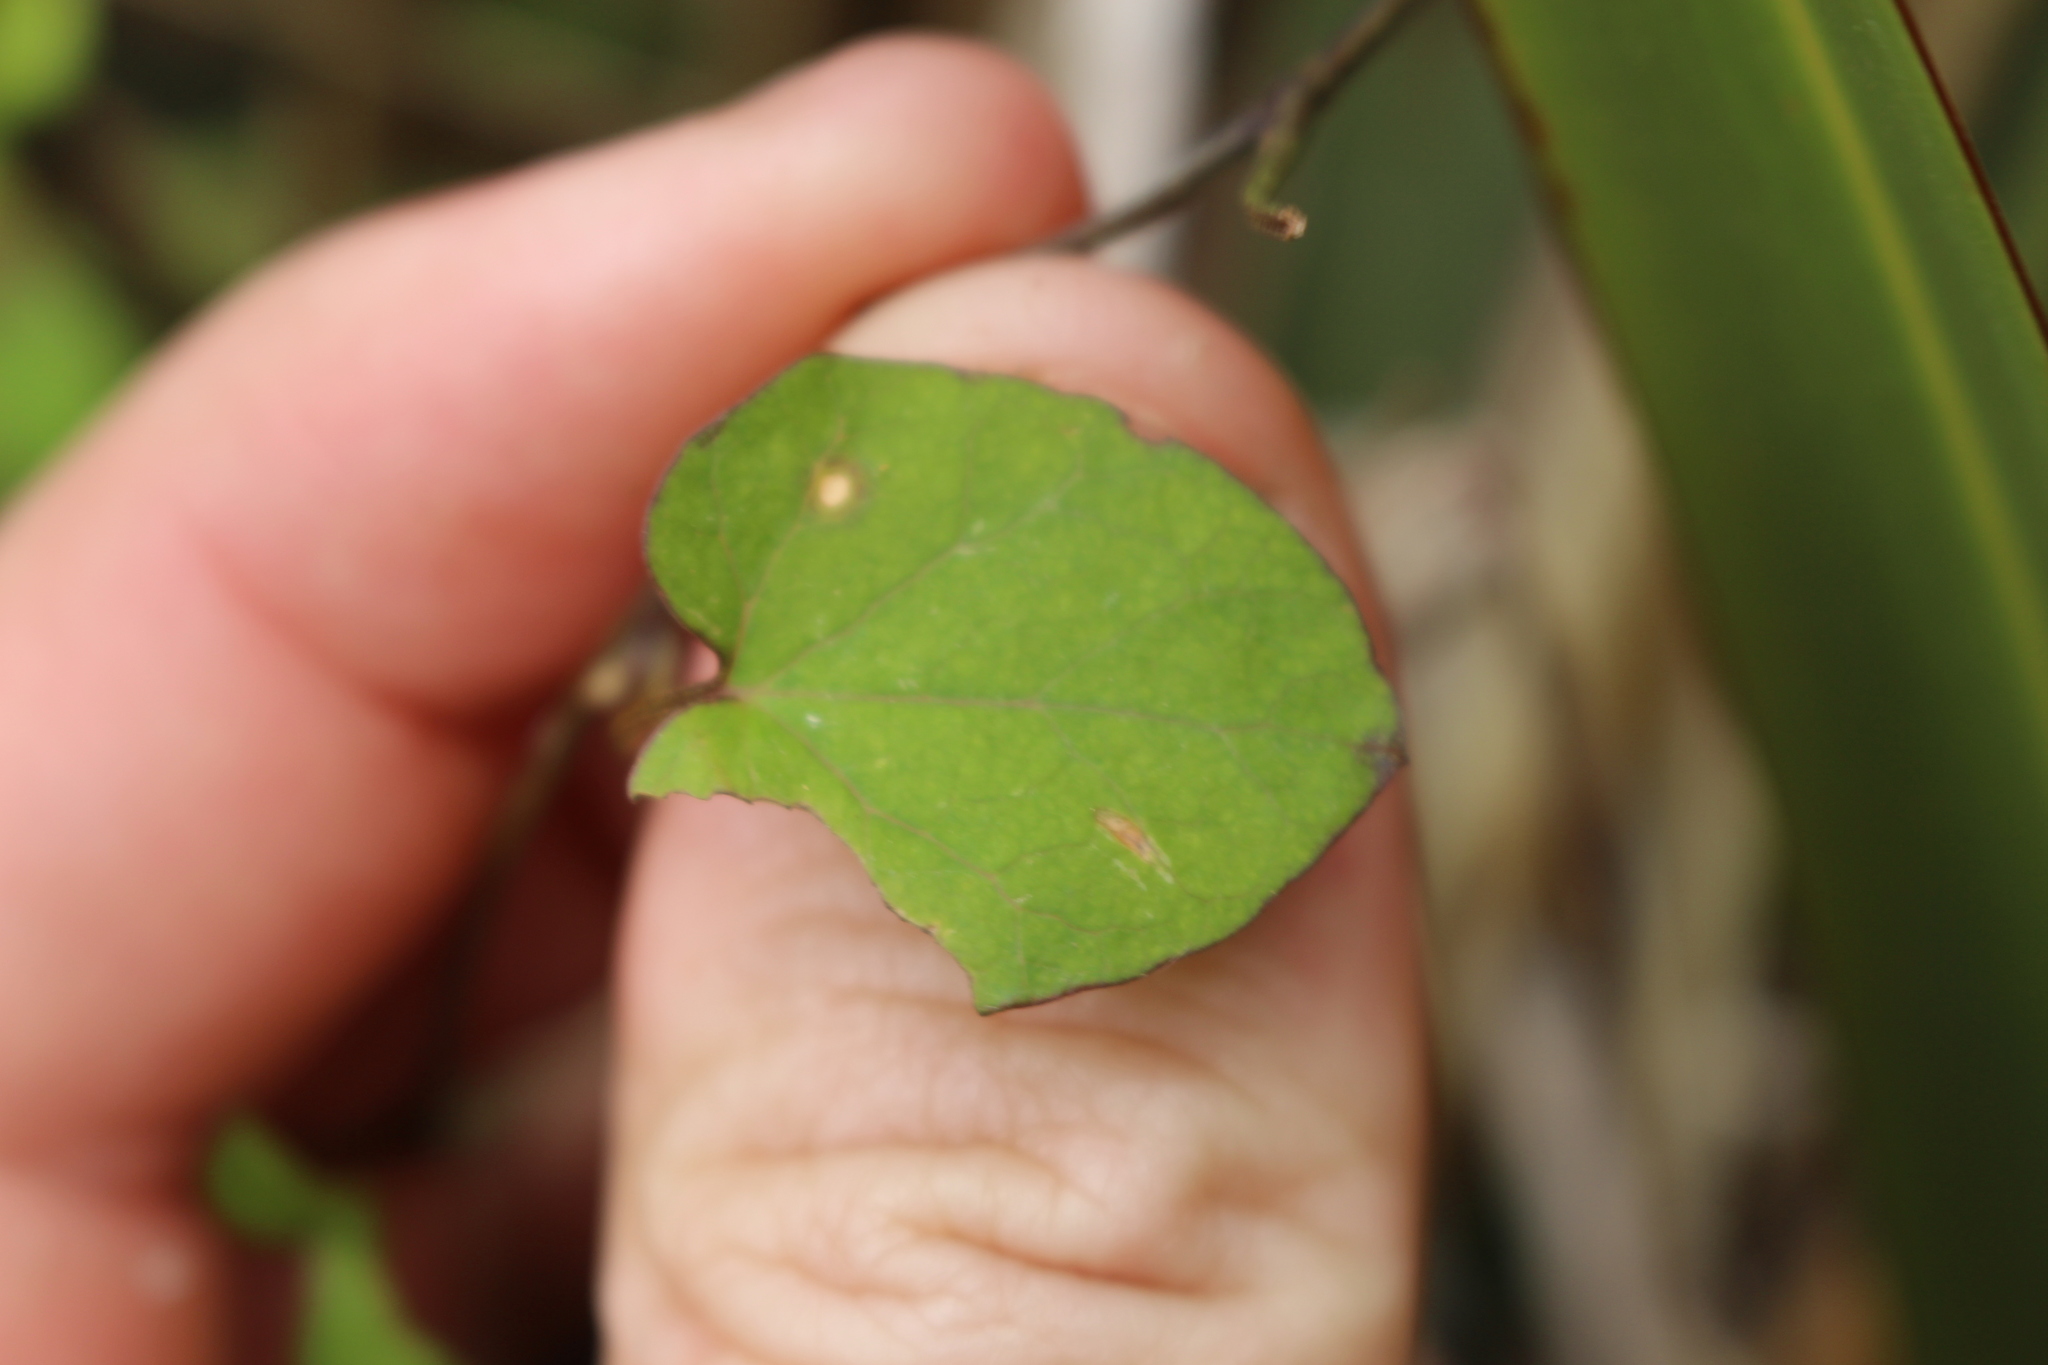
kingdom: Plantae
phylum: Tracheophyta
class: Magnoliopsida
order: Solanales
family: Convolvulaceae
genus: Calystegia
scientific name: Calystegia tuguriorum
